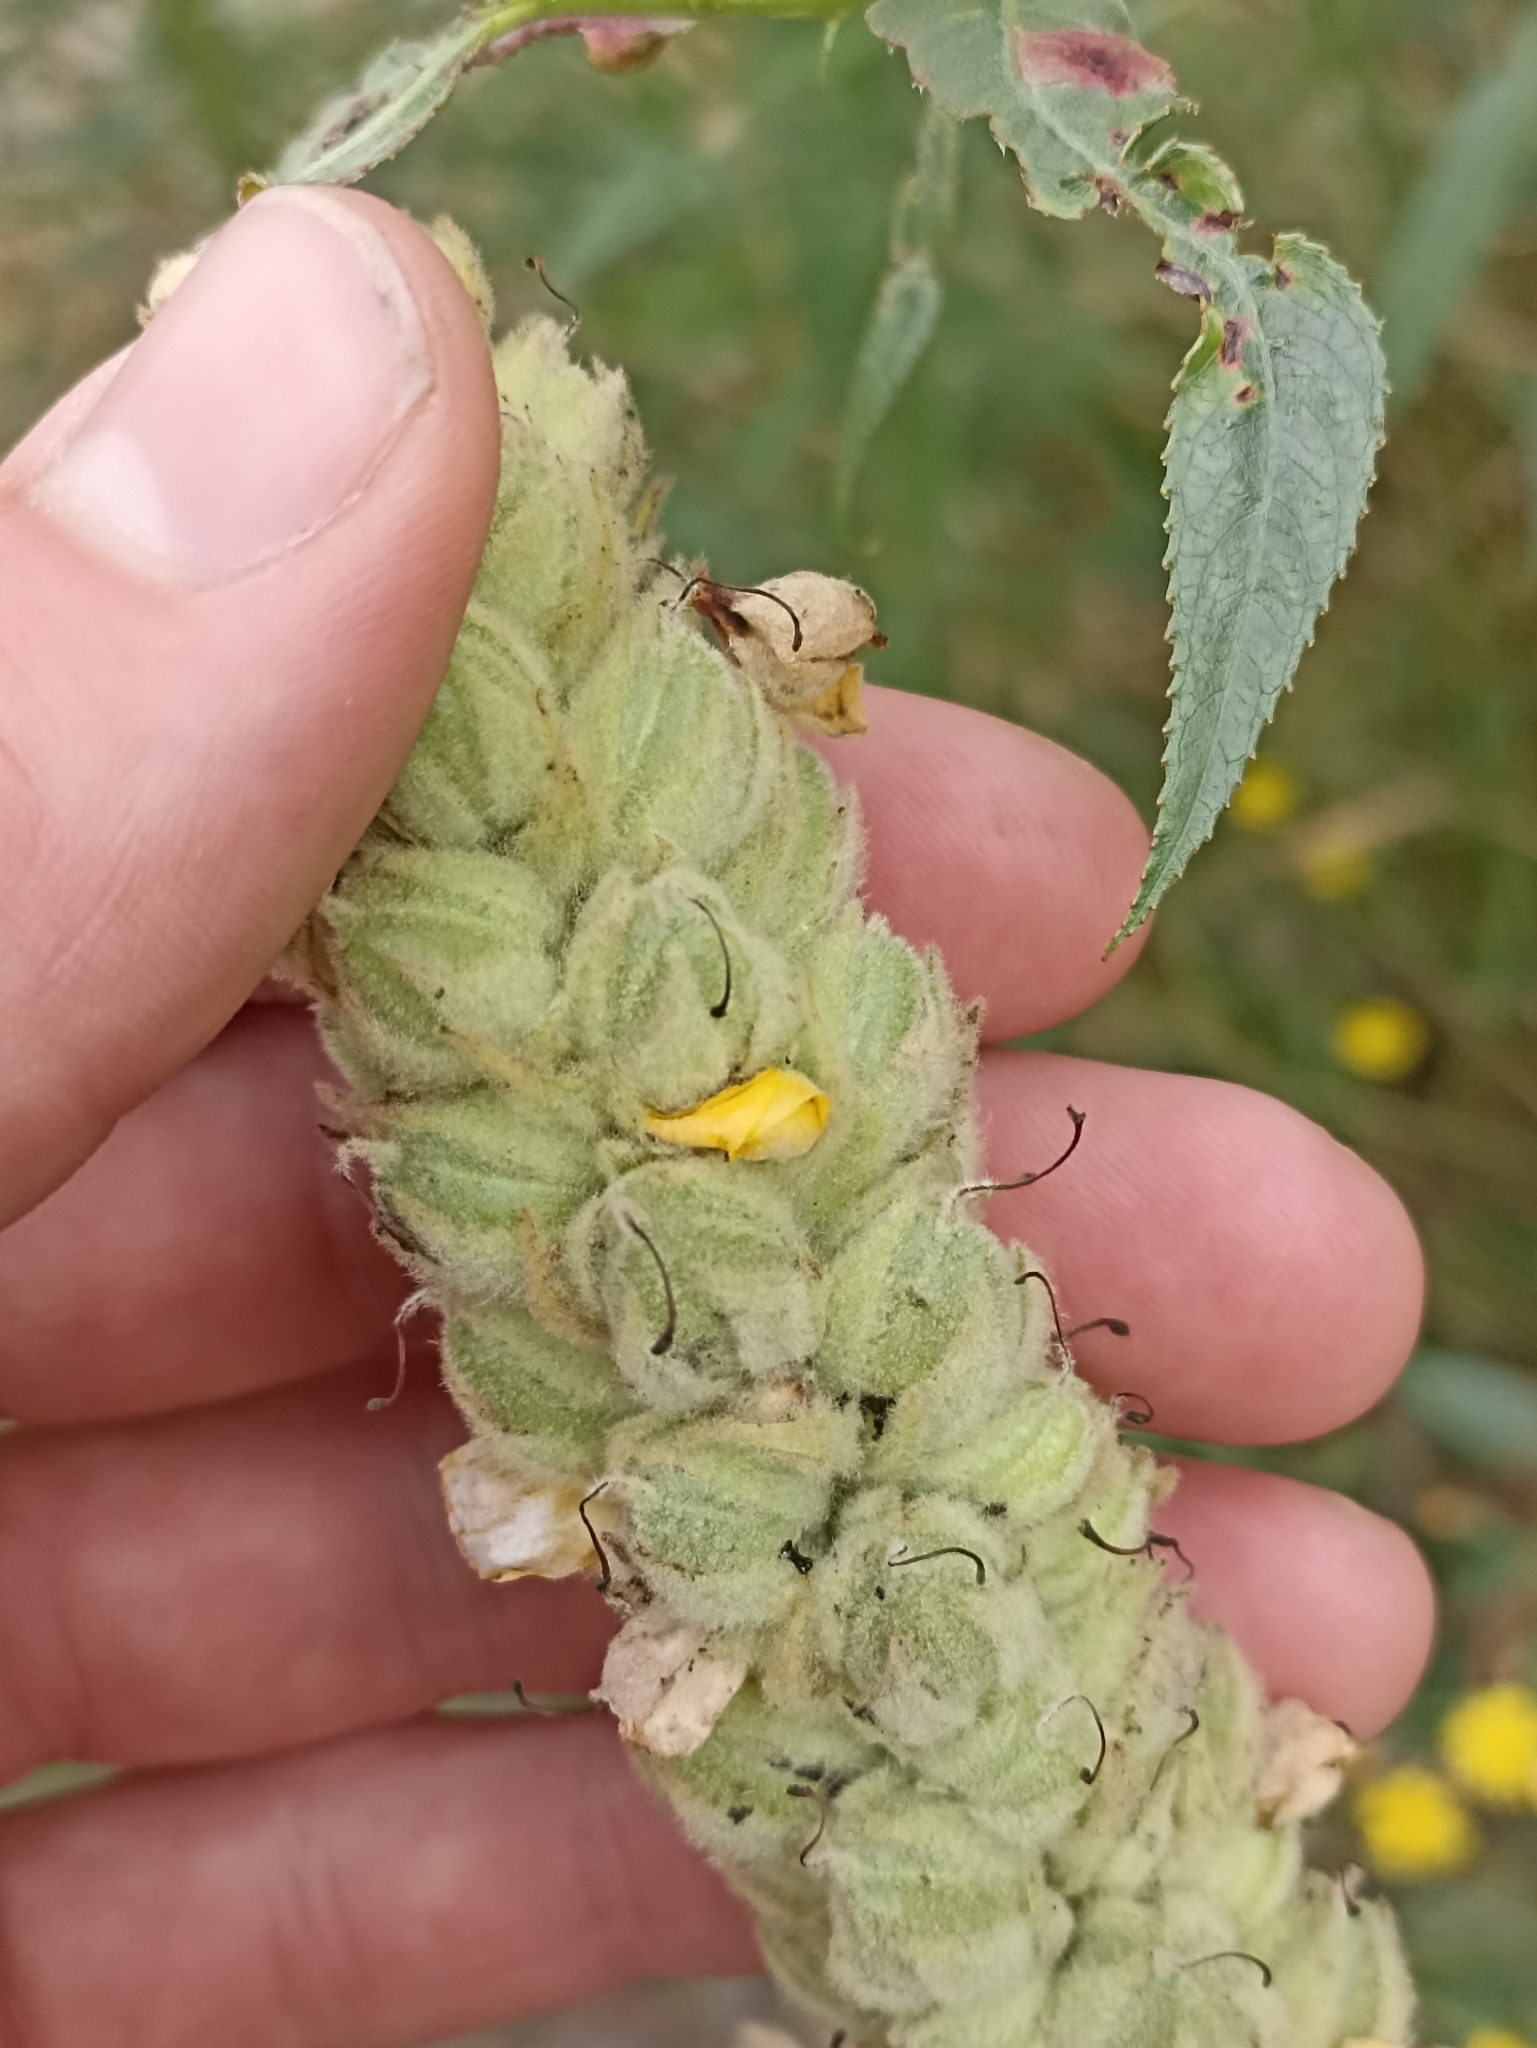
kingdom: Plantae
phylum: Tracheophyta
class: Magnoliopsida
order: Lamiales
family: Scrophulariaceae
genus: Verbascum
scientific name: Verbascum thapsus
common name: Common mullein
